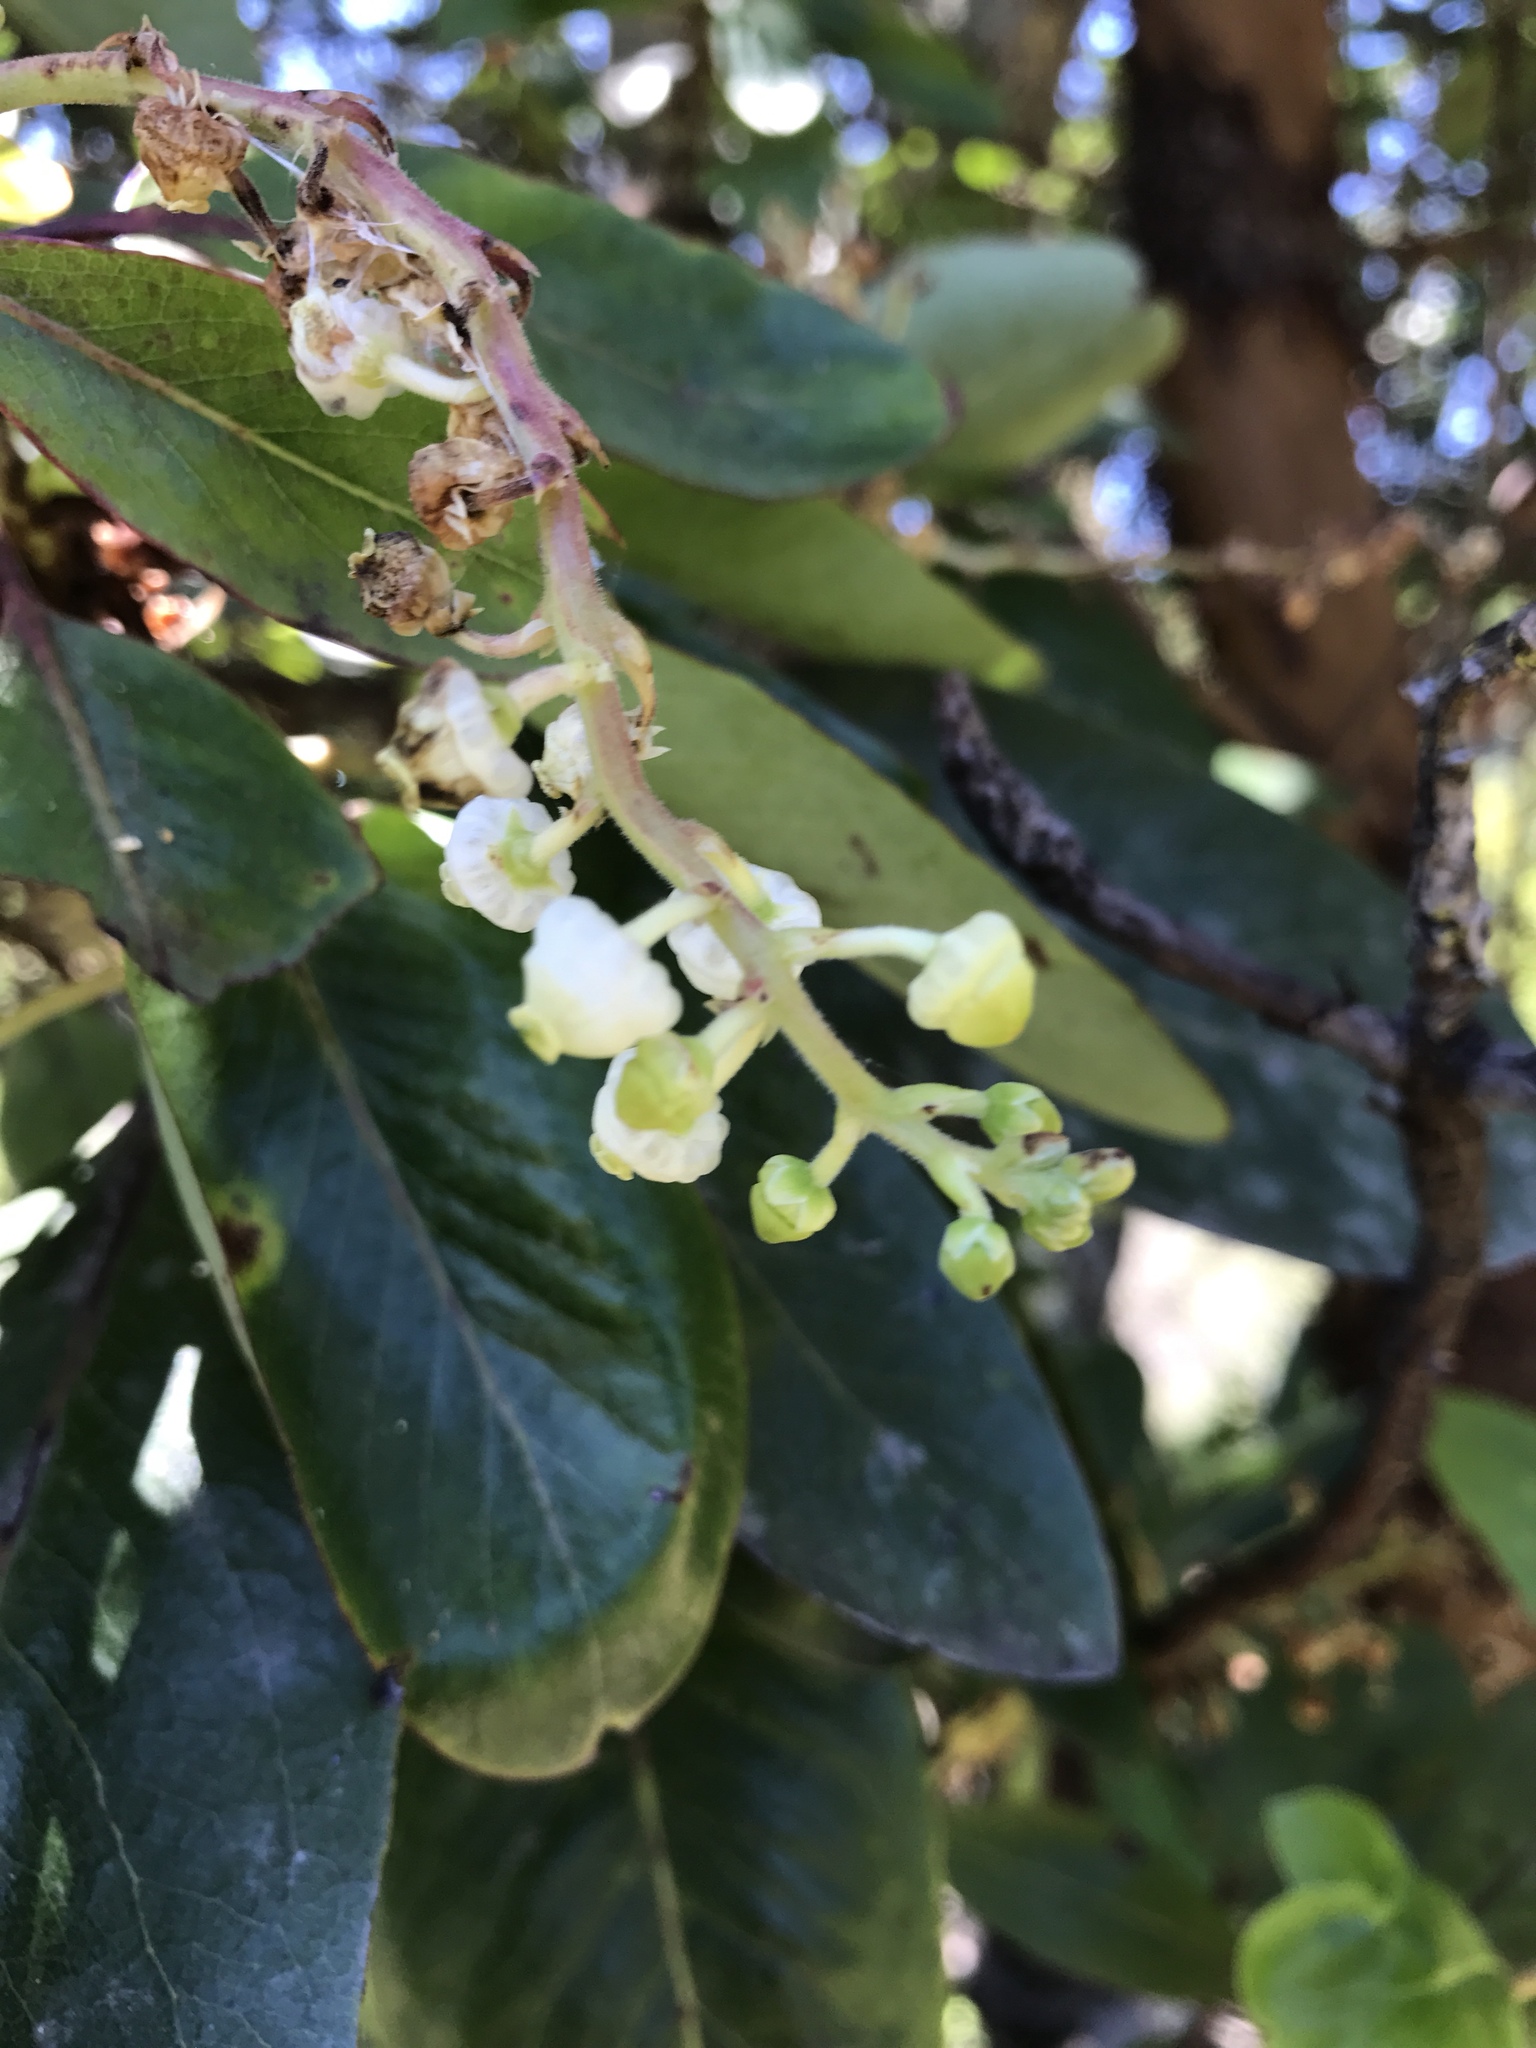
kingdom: Plantae
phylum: Tracheophyta
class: Magnoliopsida
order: Ericales
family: Ericaceae
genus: Arbutus
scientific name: Arbutus menziesii
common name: Pacific madrone
